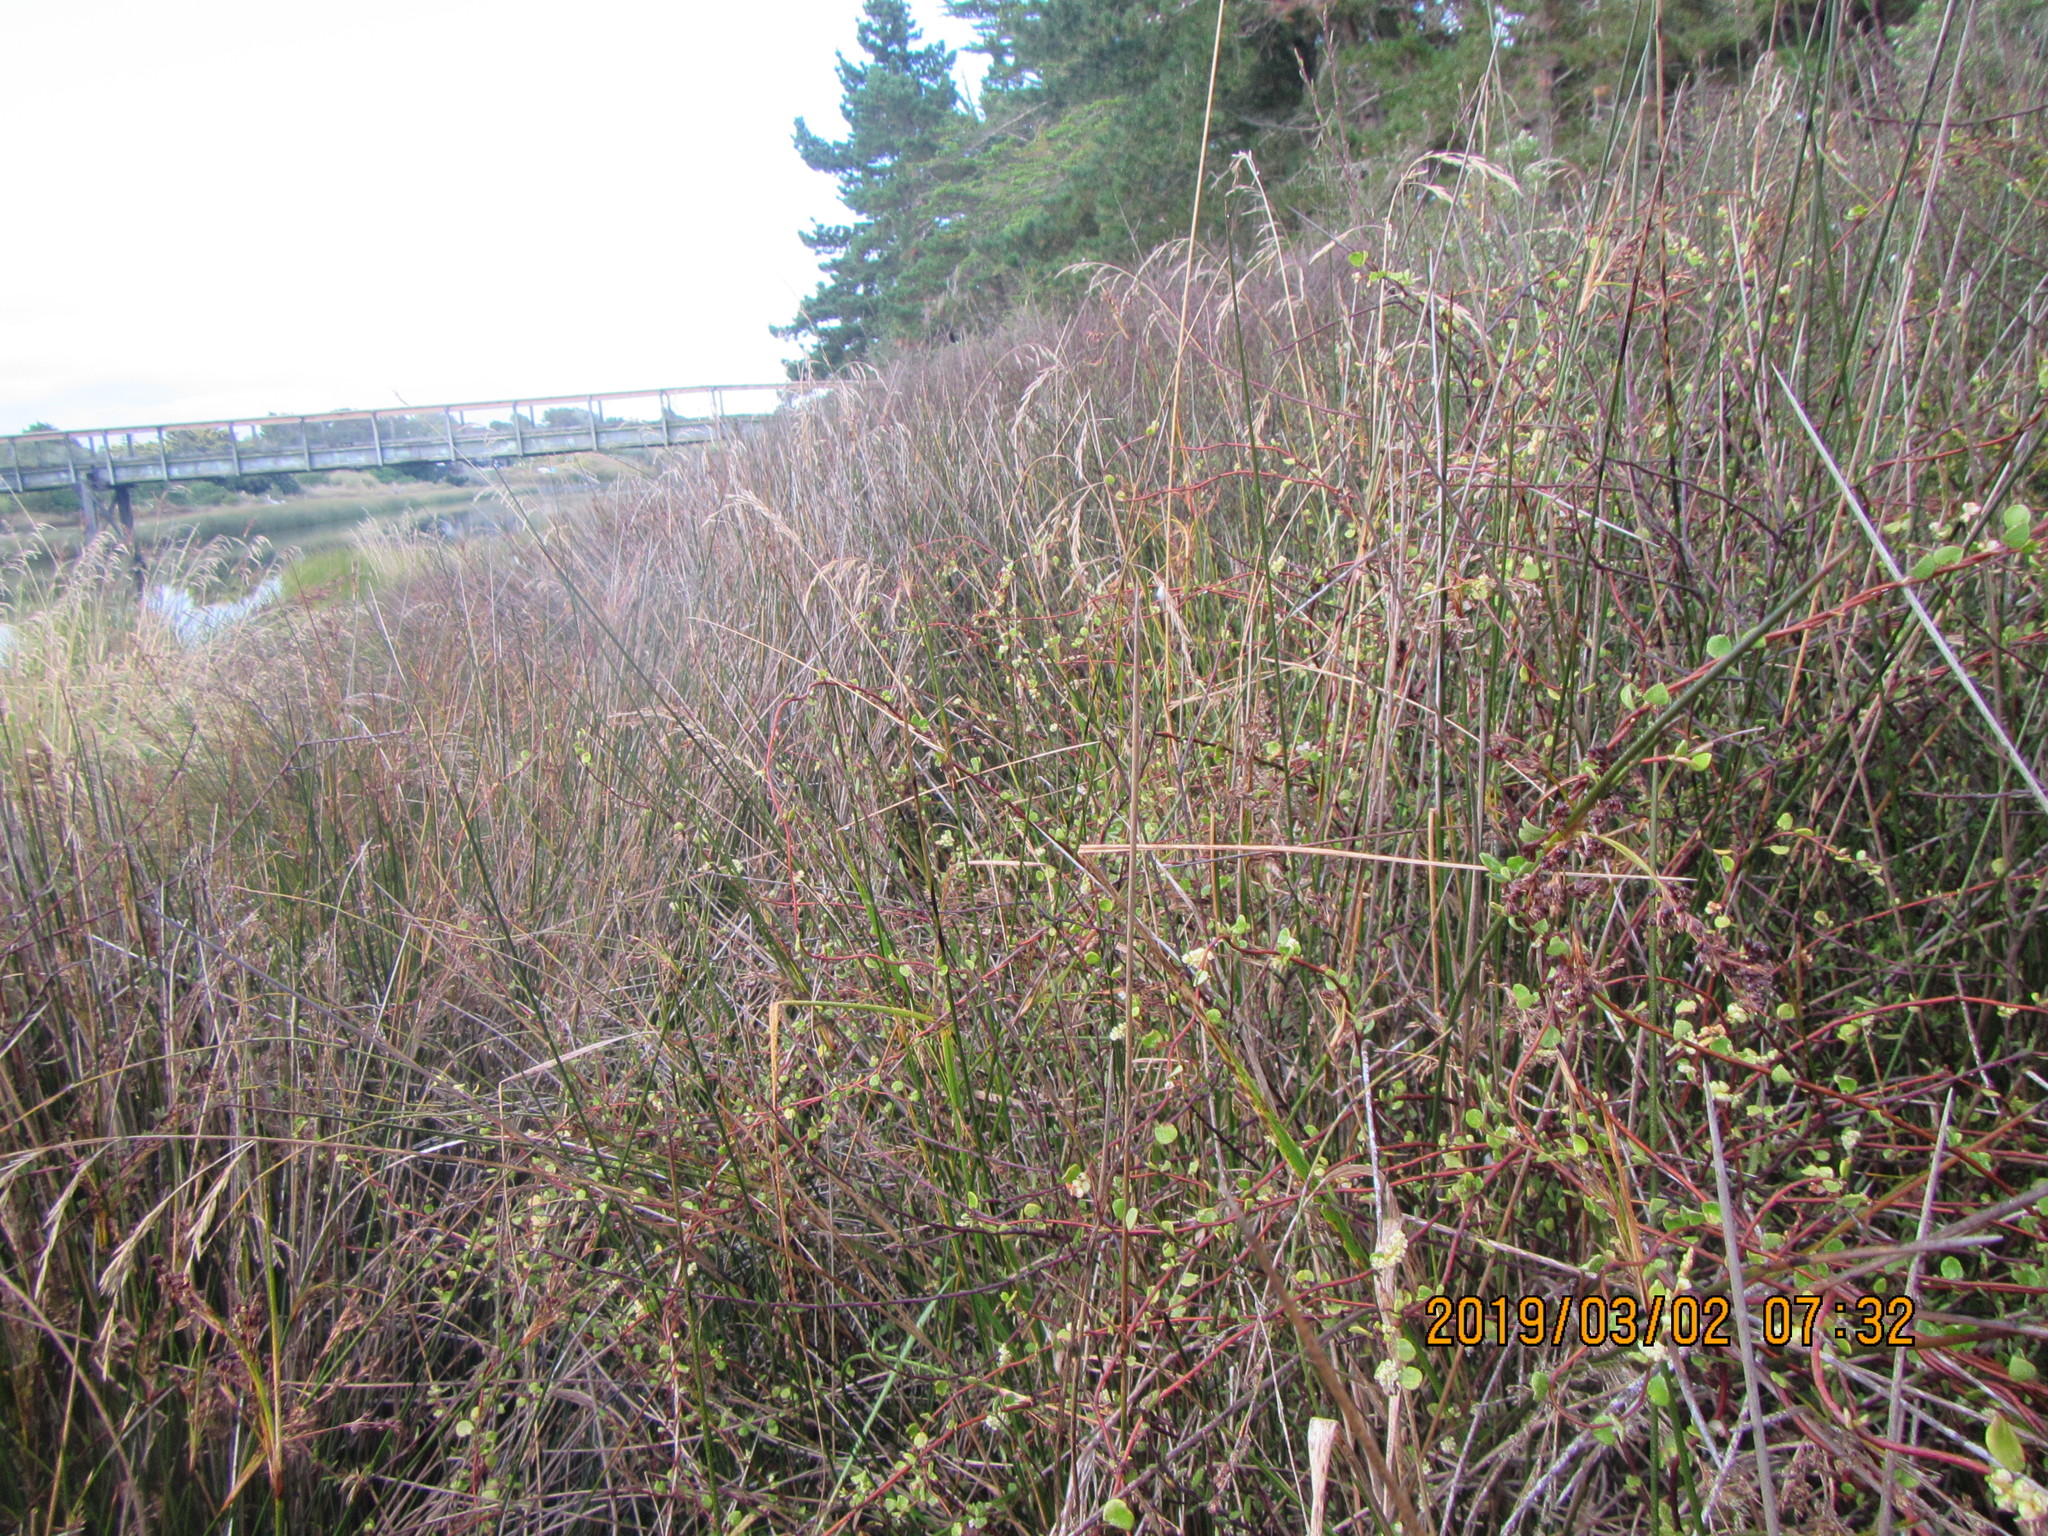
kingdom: Plantae
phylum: Tracheophyta
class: Magnoliopsida
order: Caryophyllales
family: Polygonaceae
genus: Muehlenbeckia
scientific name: Muehlenbeckia complexa
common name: Wireplant
